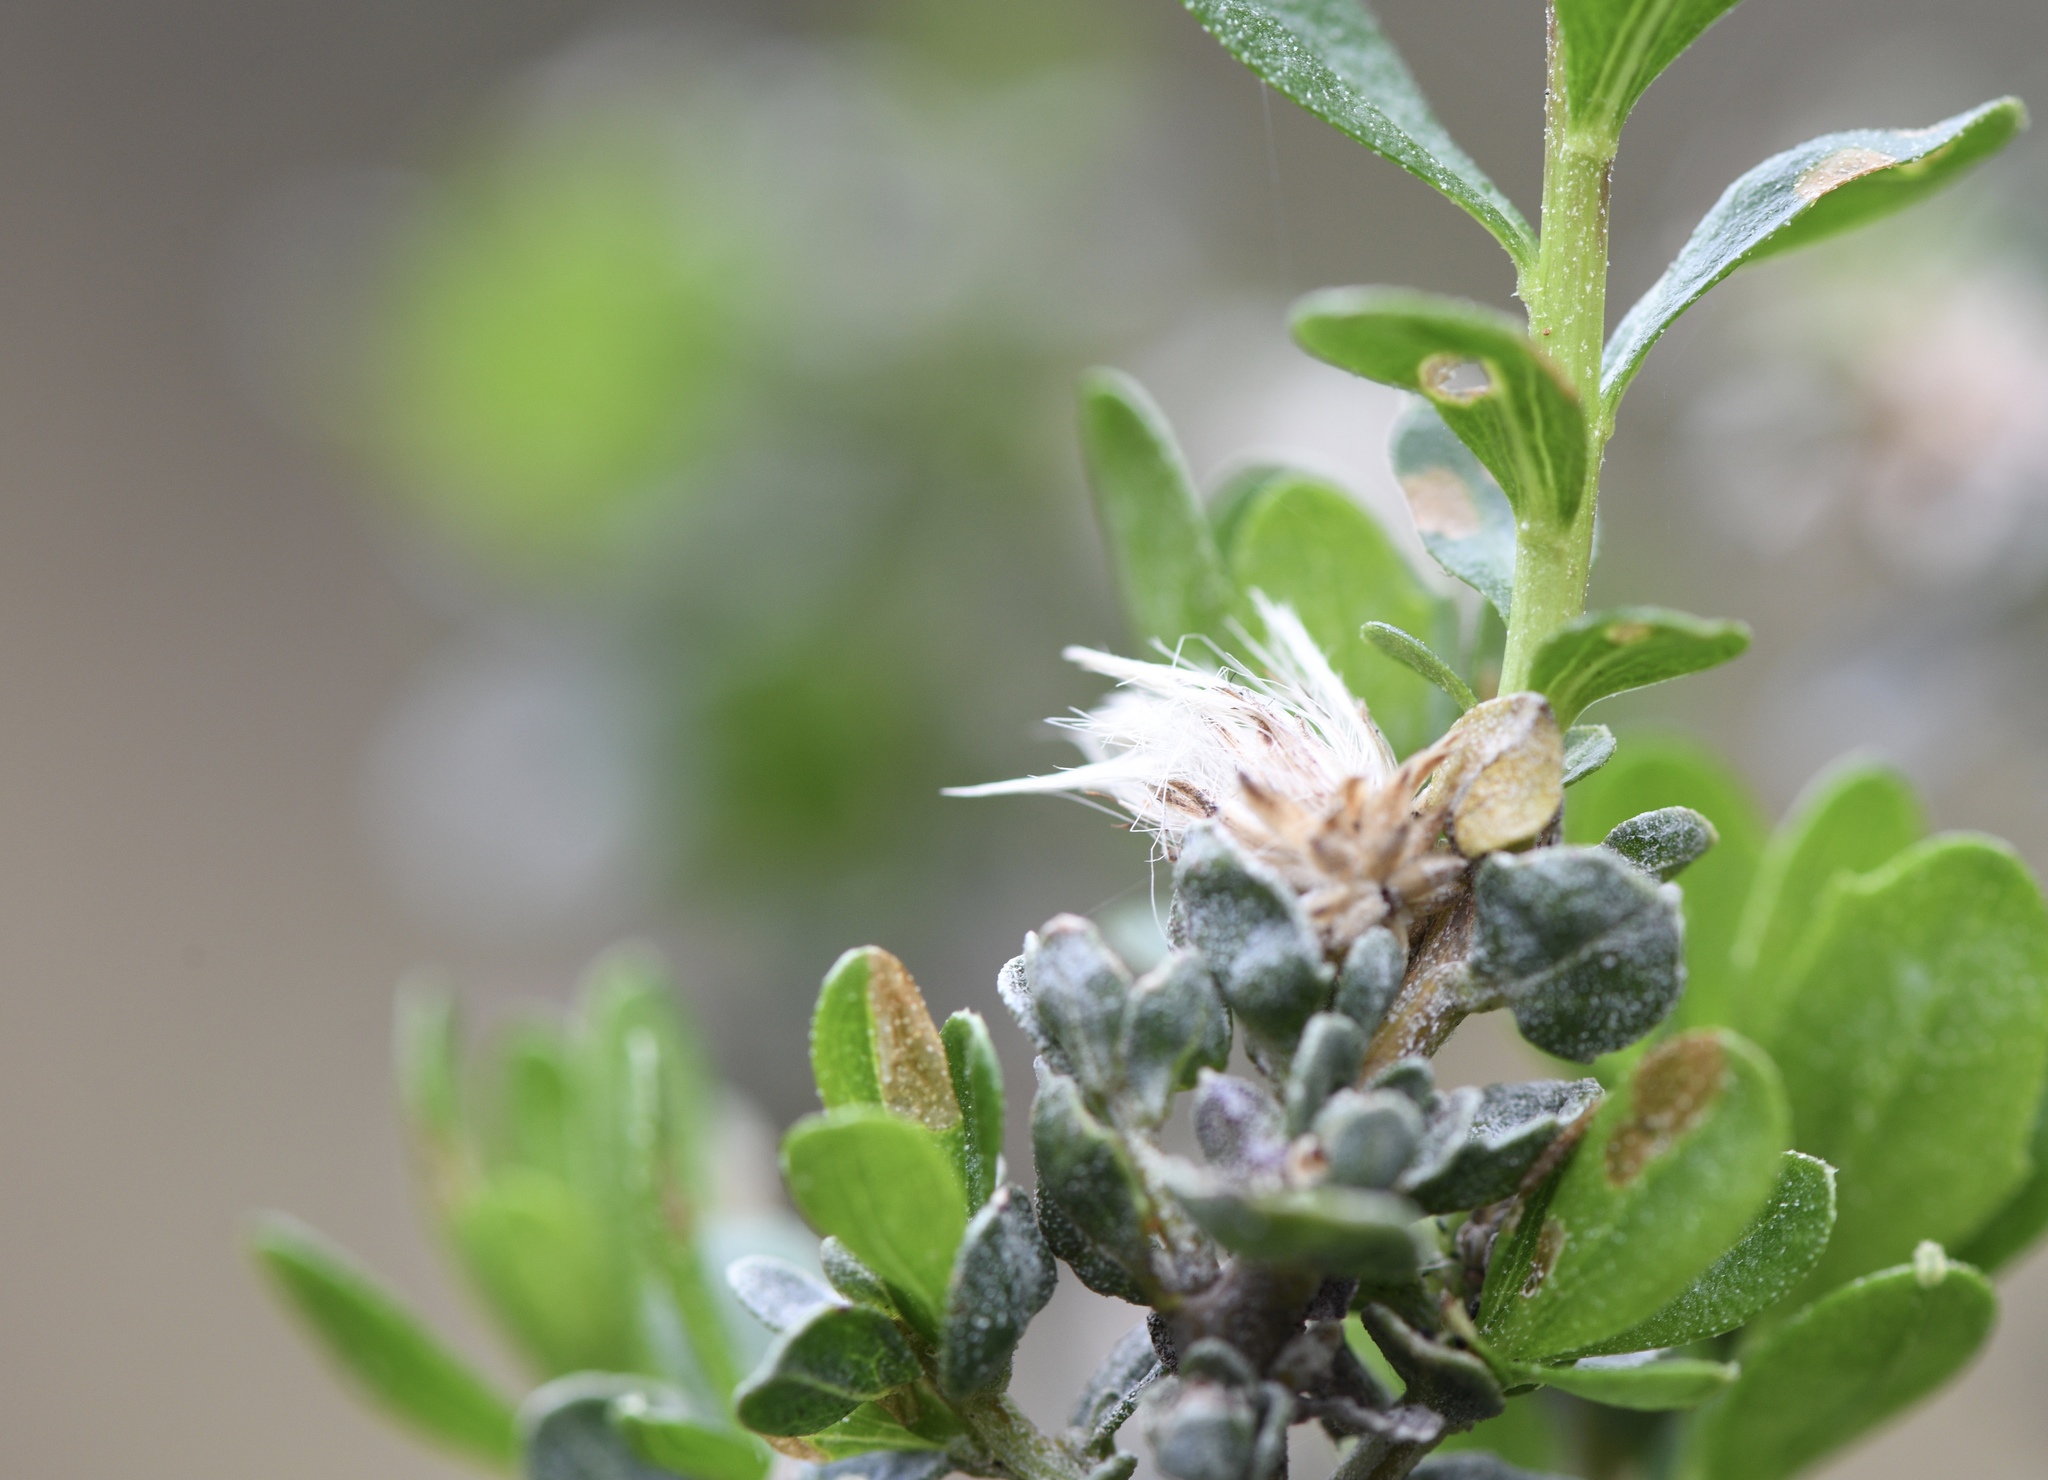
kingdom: Plantae
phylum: Tracheophyta
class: Magnoliopsida
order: Asterales
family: Asteraceae
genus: Baccharis
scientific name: Baccharis pilularis
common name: Coyotebrush
